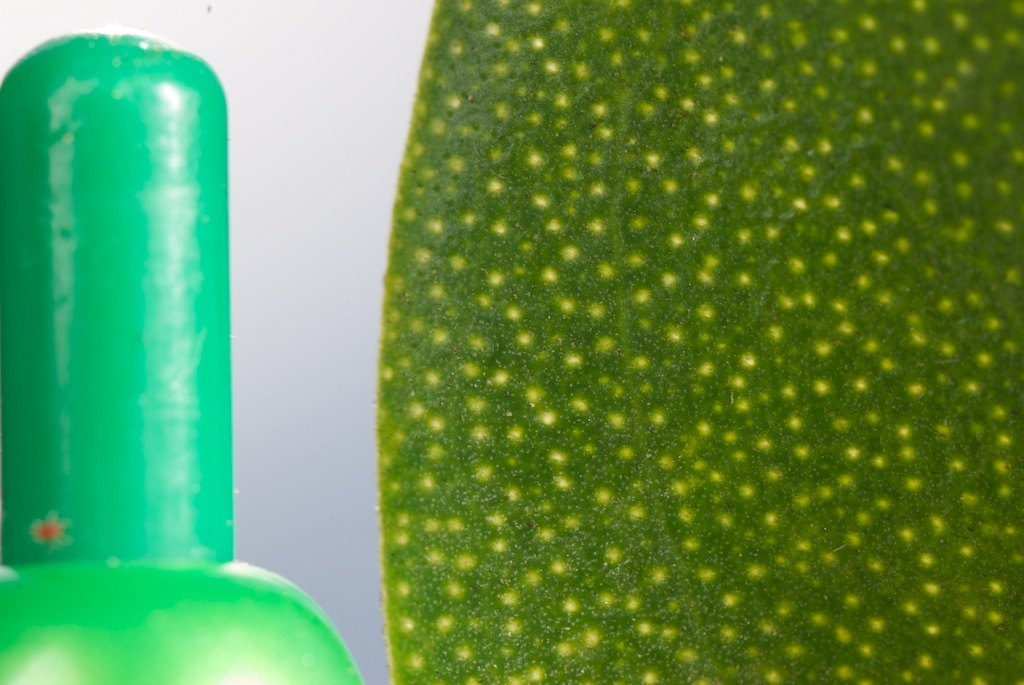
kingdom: Plantae
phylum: Tracheophyta
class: Magnoliopsida
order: Lamiales
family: Scrophulariaceae
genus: Myoporum
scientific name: Myoporum laetum
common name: Ngaio tree
